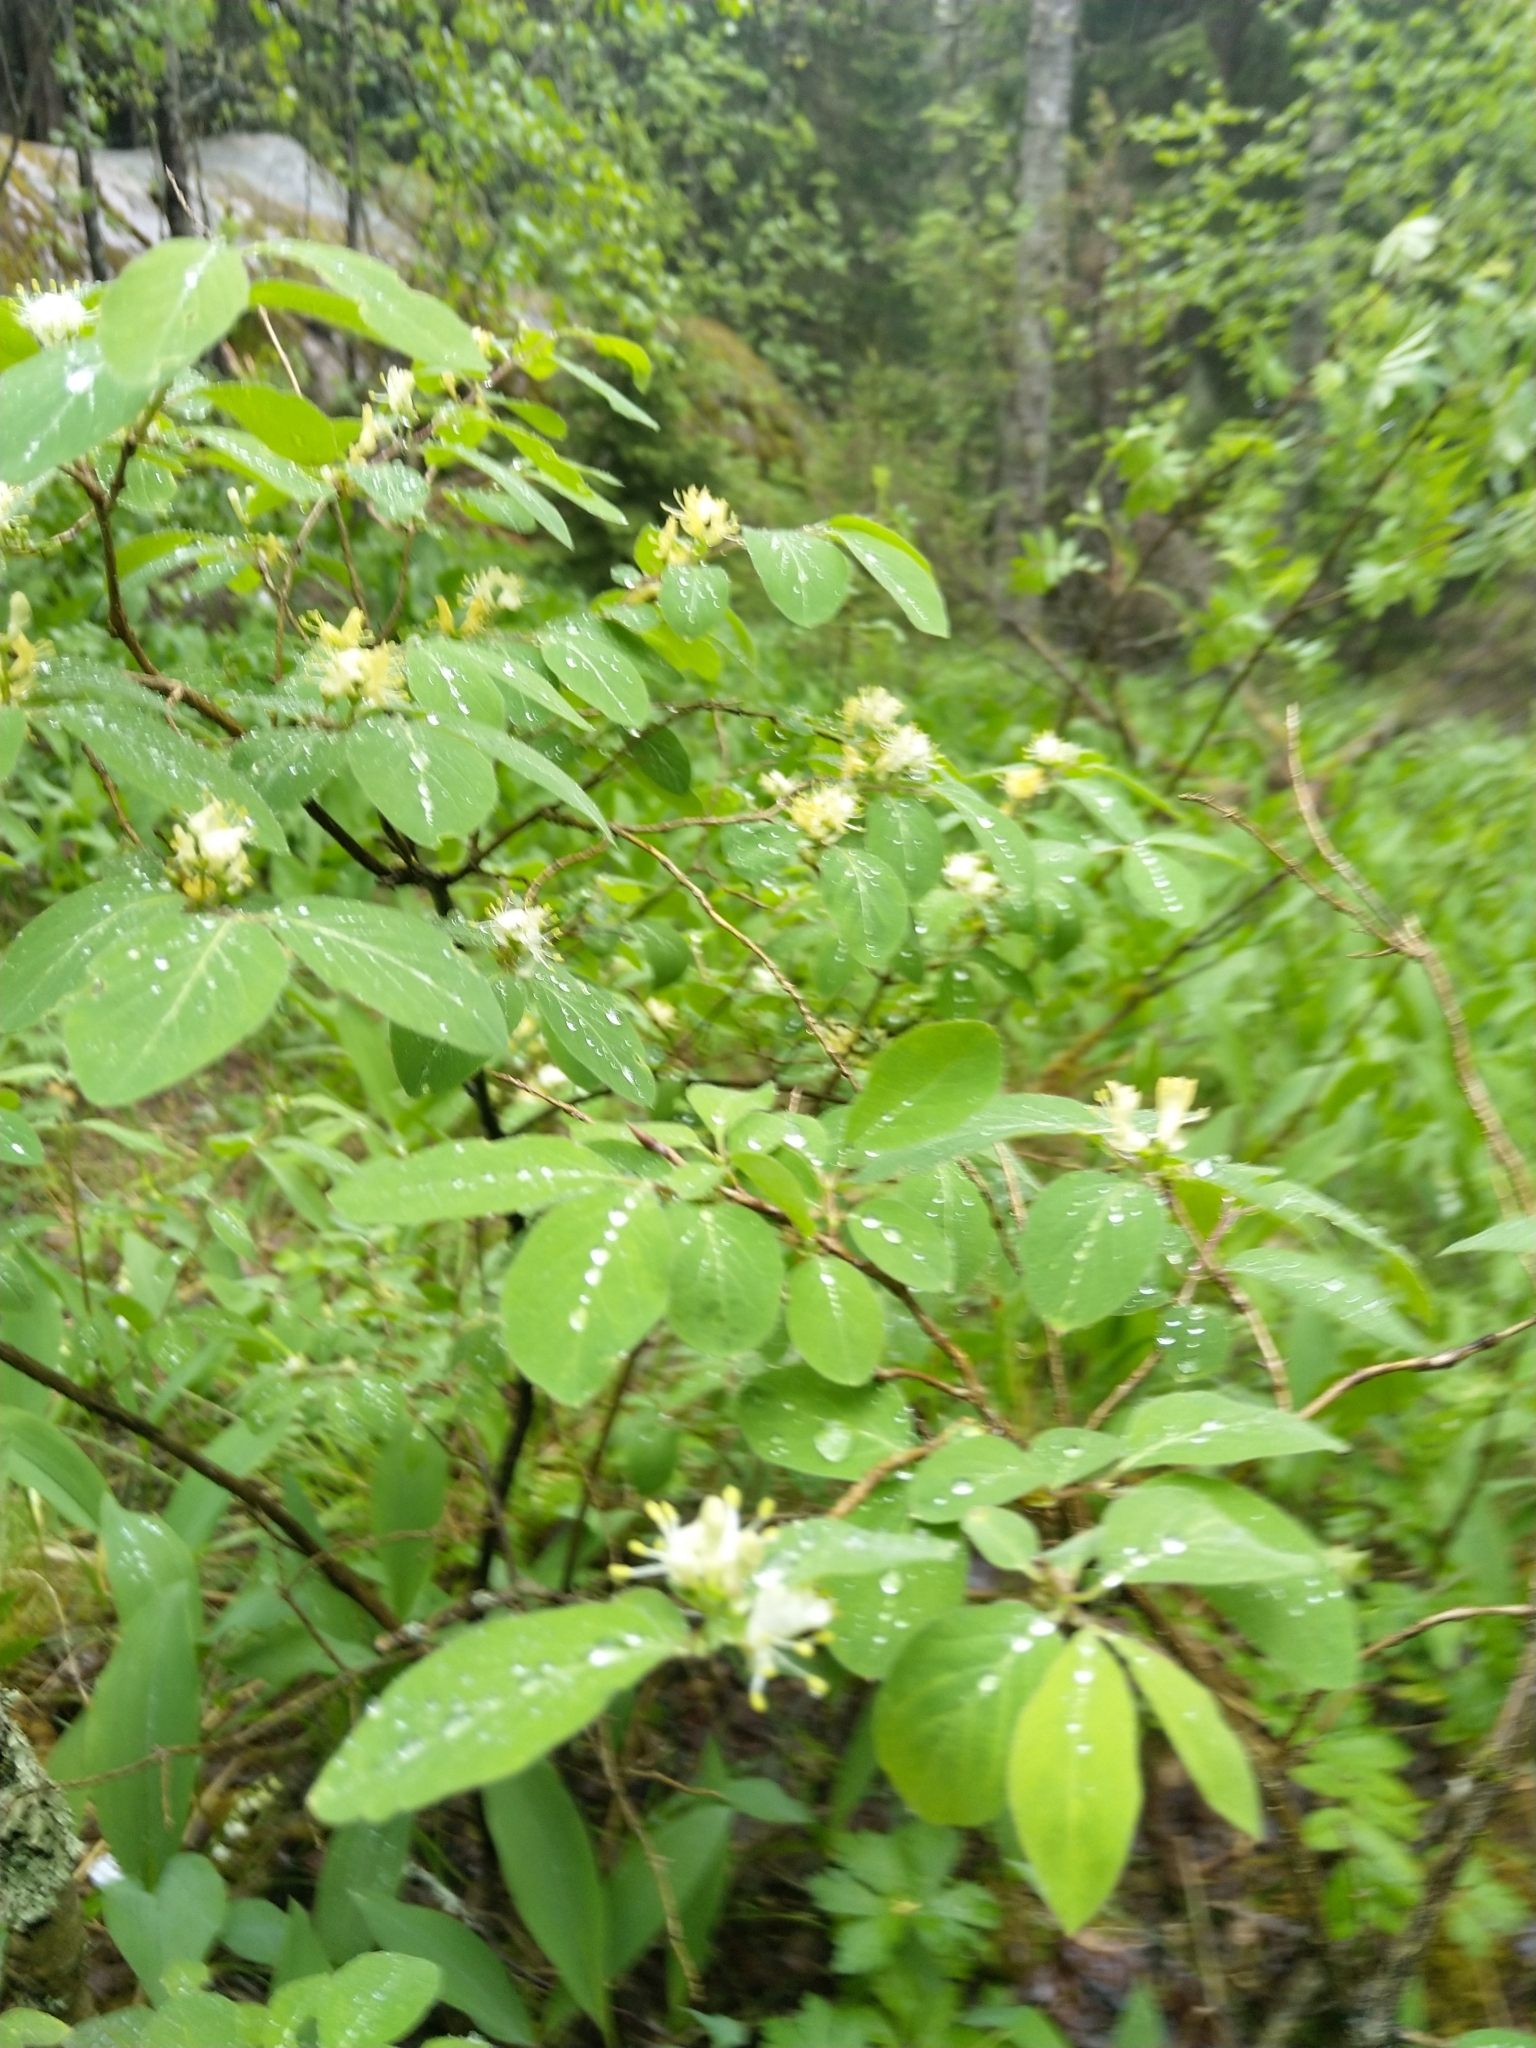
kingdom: Plantae
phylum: Tracheophyta
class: Magnoliopsida
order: Dipsacales
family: Caprifoliaceae
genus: Lonicera
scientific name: Lonicera xylosteum
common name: Fly honeysuckle
